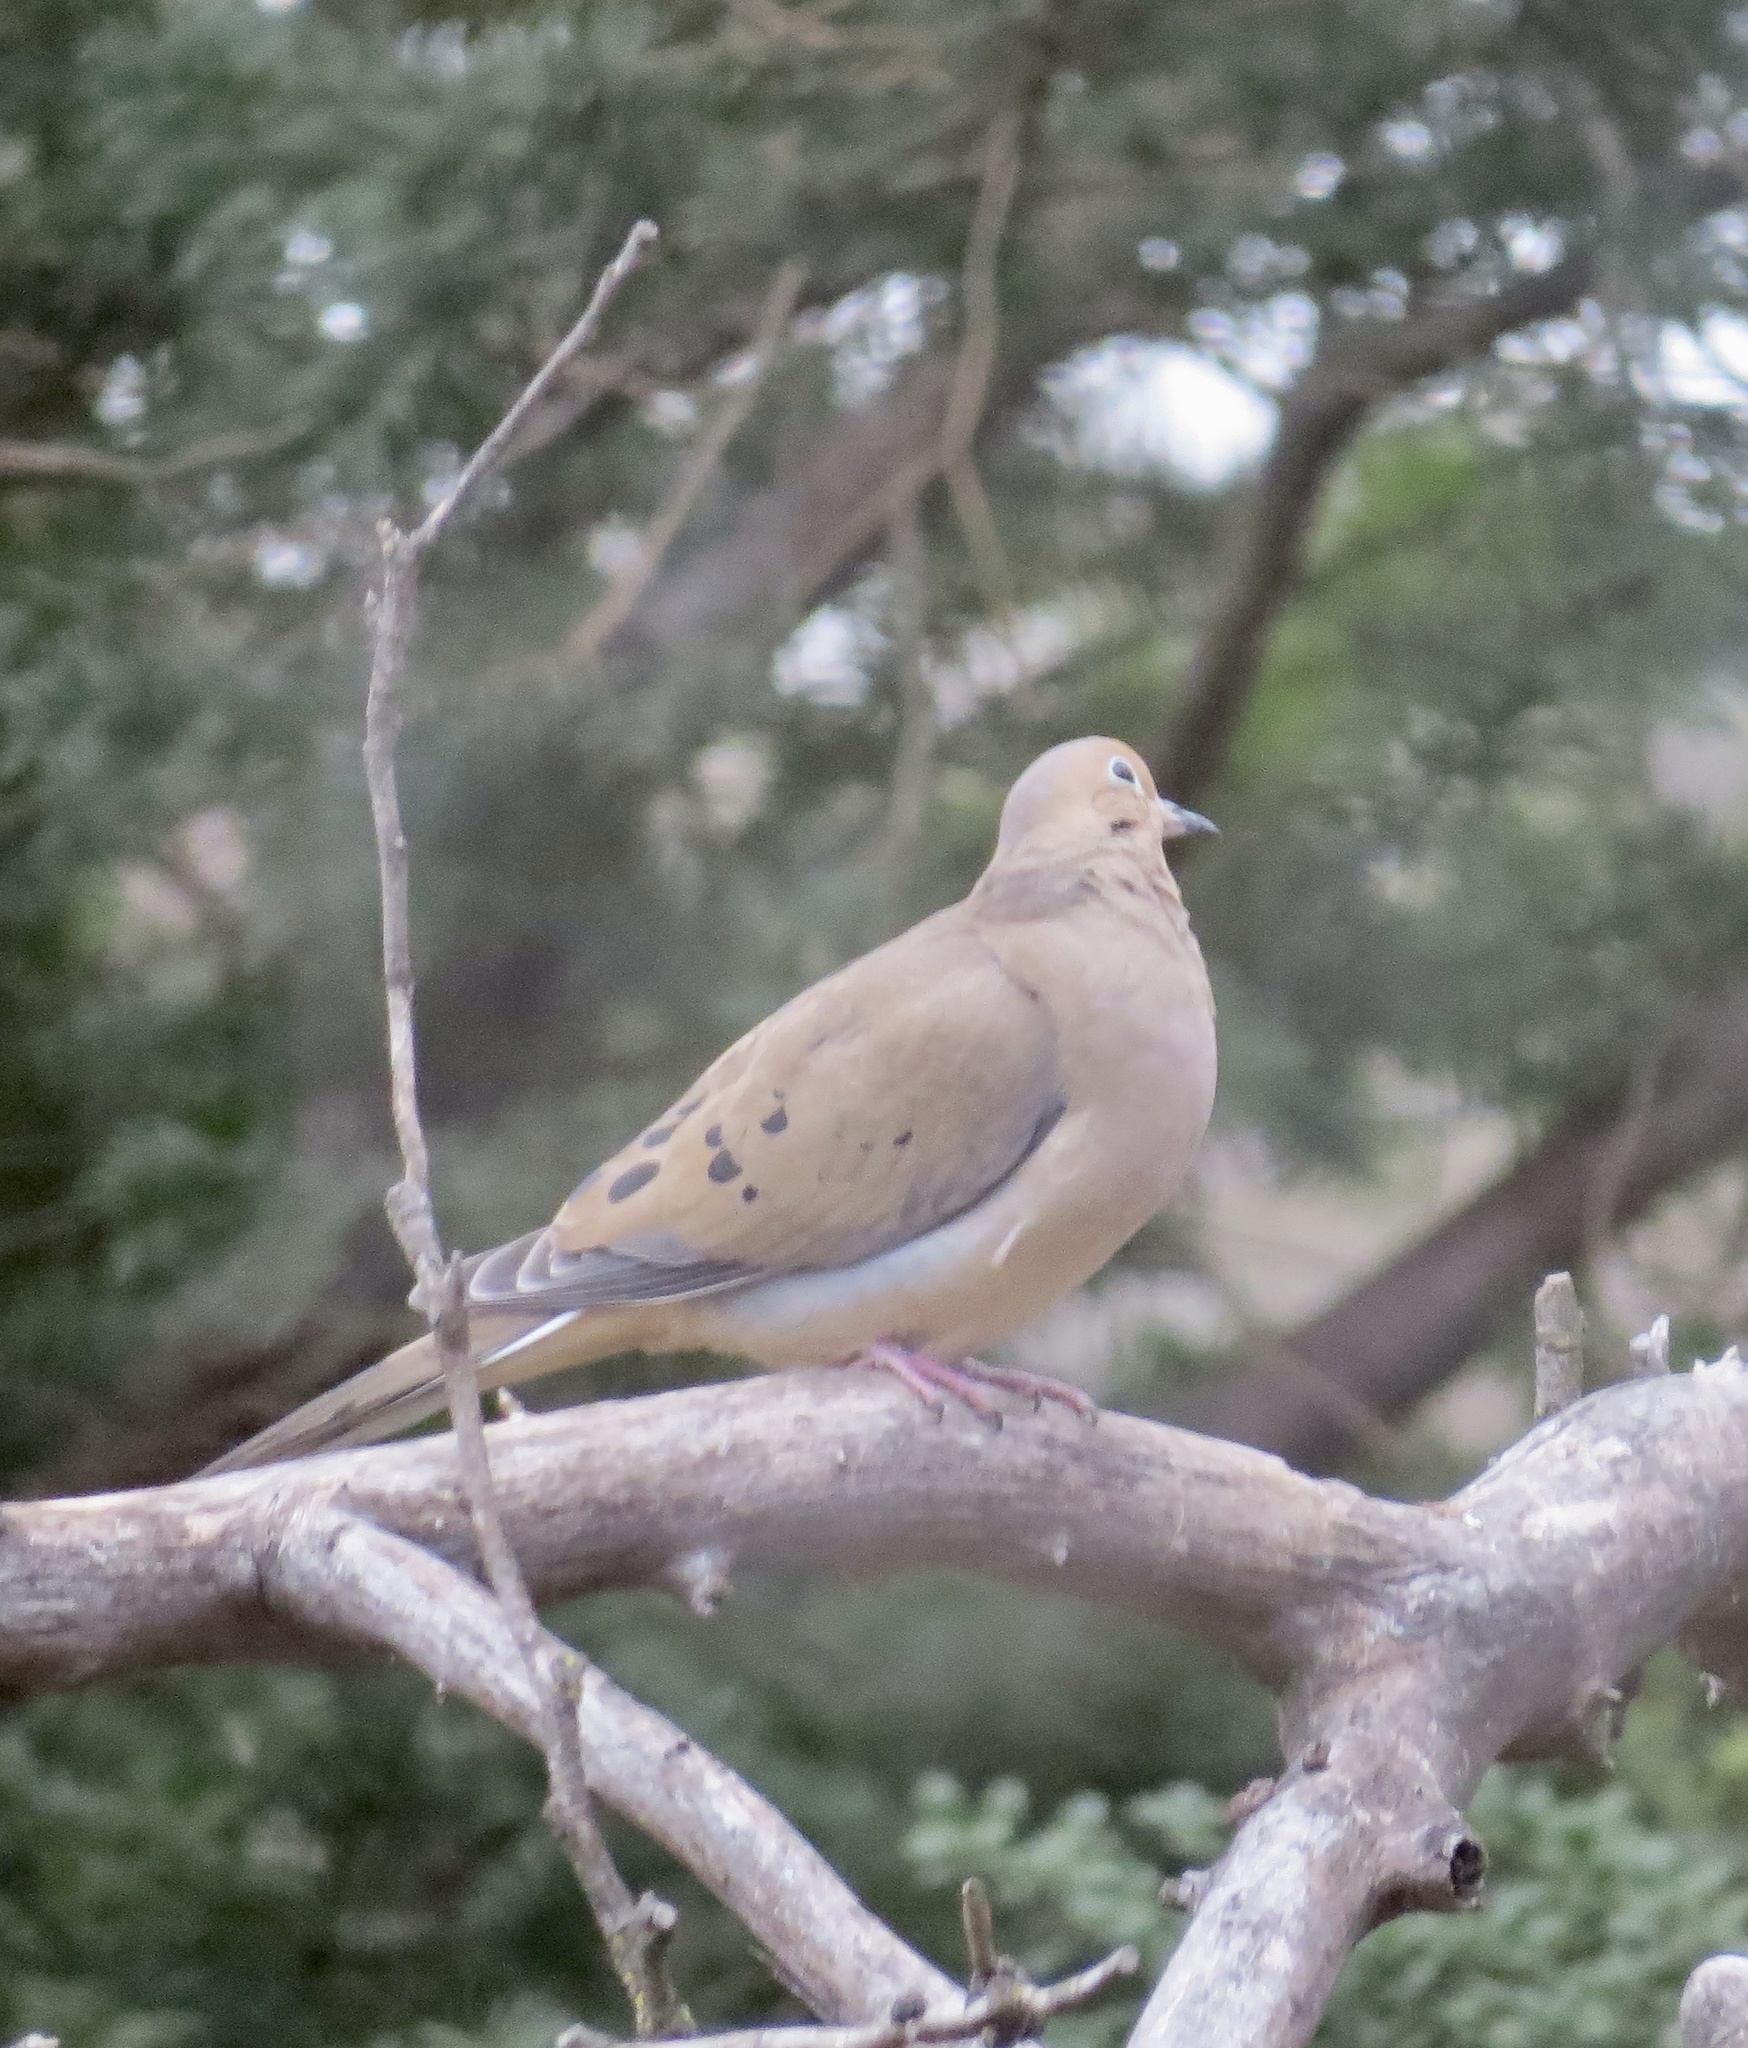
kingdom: Animalia
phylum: Chordata
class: Aves
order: Columbiformes
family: Columbidae
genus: Zenaida
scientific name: Zenaida macroura
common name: Mourning dove
